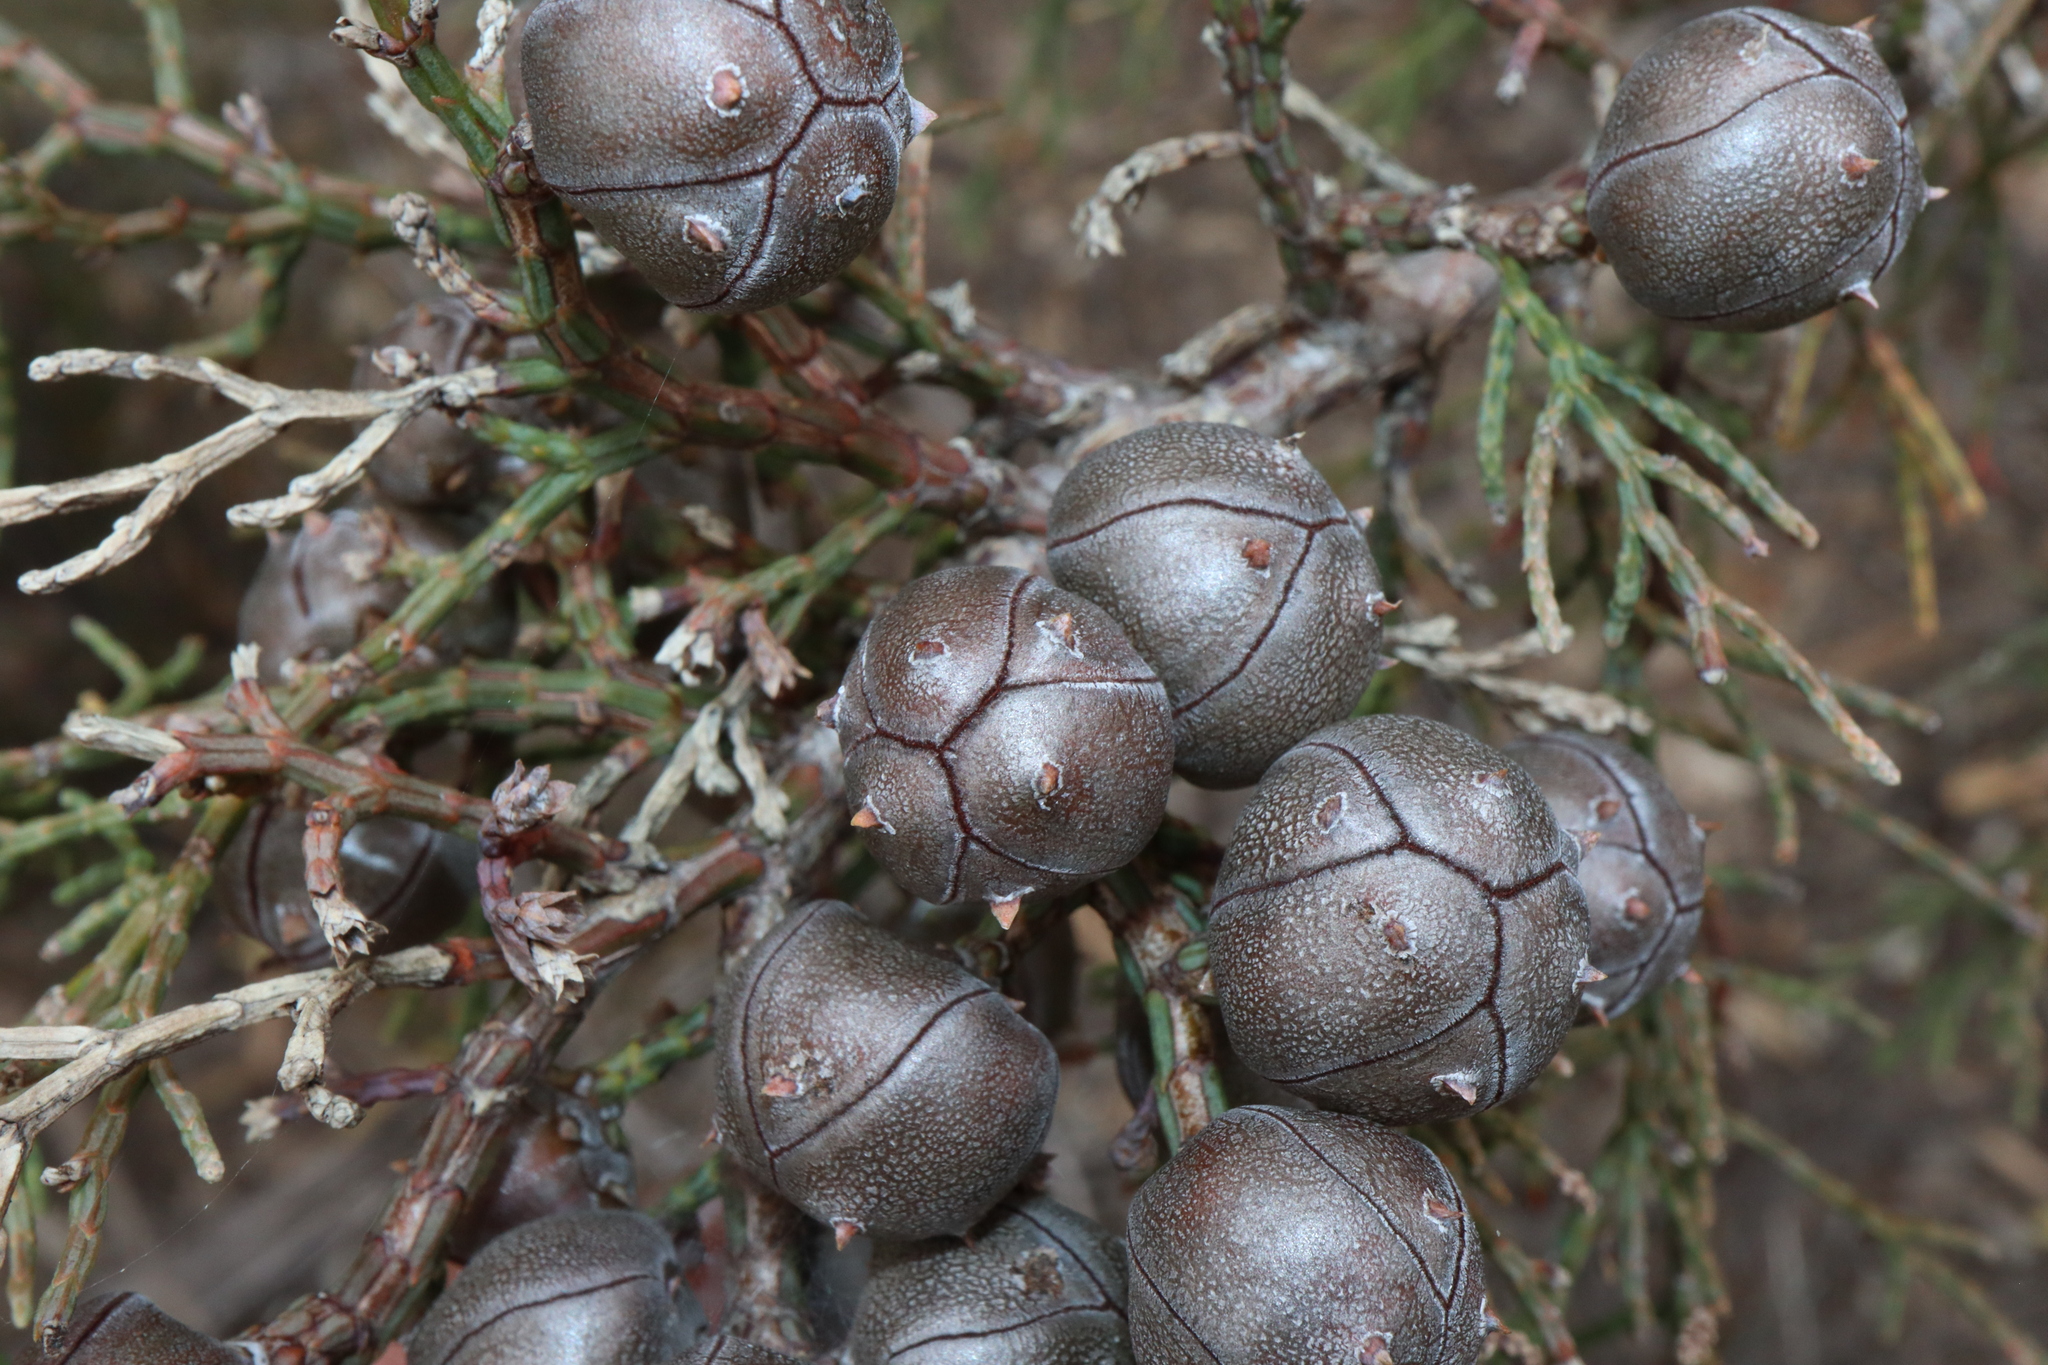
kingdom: Plantae
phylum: Tracheophyta
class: Pinopsida
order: Pinales
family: Cupressaceae
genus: Callitris
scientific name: Callitris roei
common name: Roe's cypress-pine
